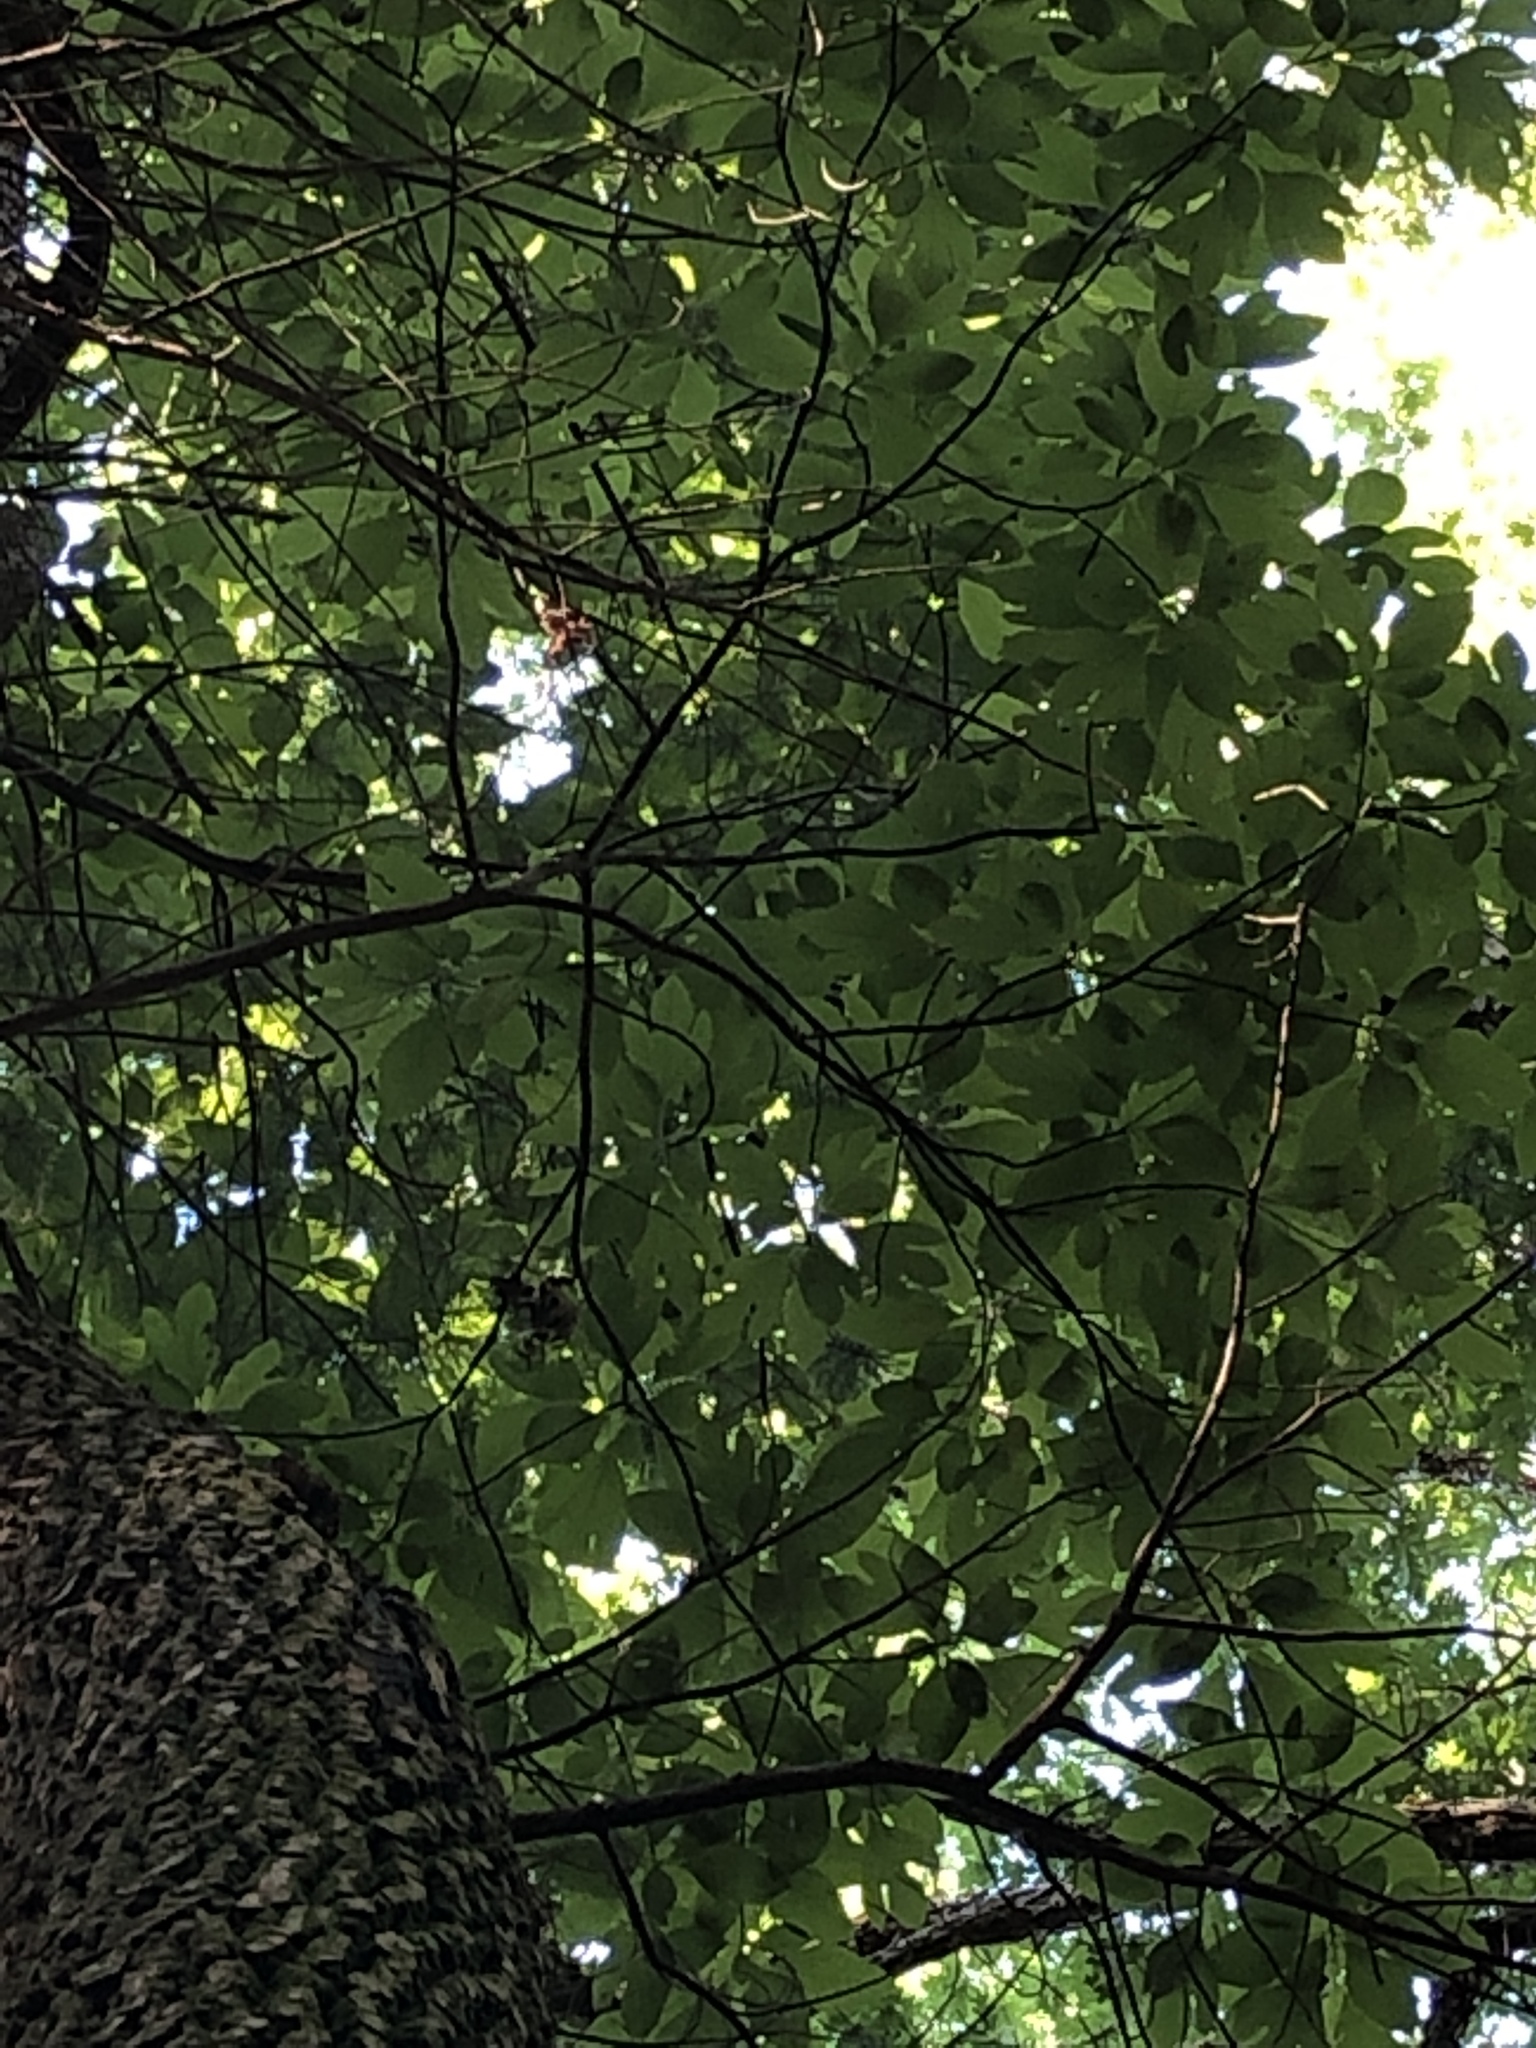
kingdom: Plantae
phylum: Tracheophyta
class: Magnoliopsida
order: Laurales
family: Lauraceae
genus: Sassafras
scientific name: Sassafras albidum
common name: Sassafras
